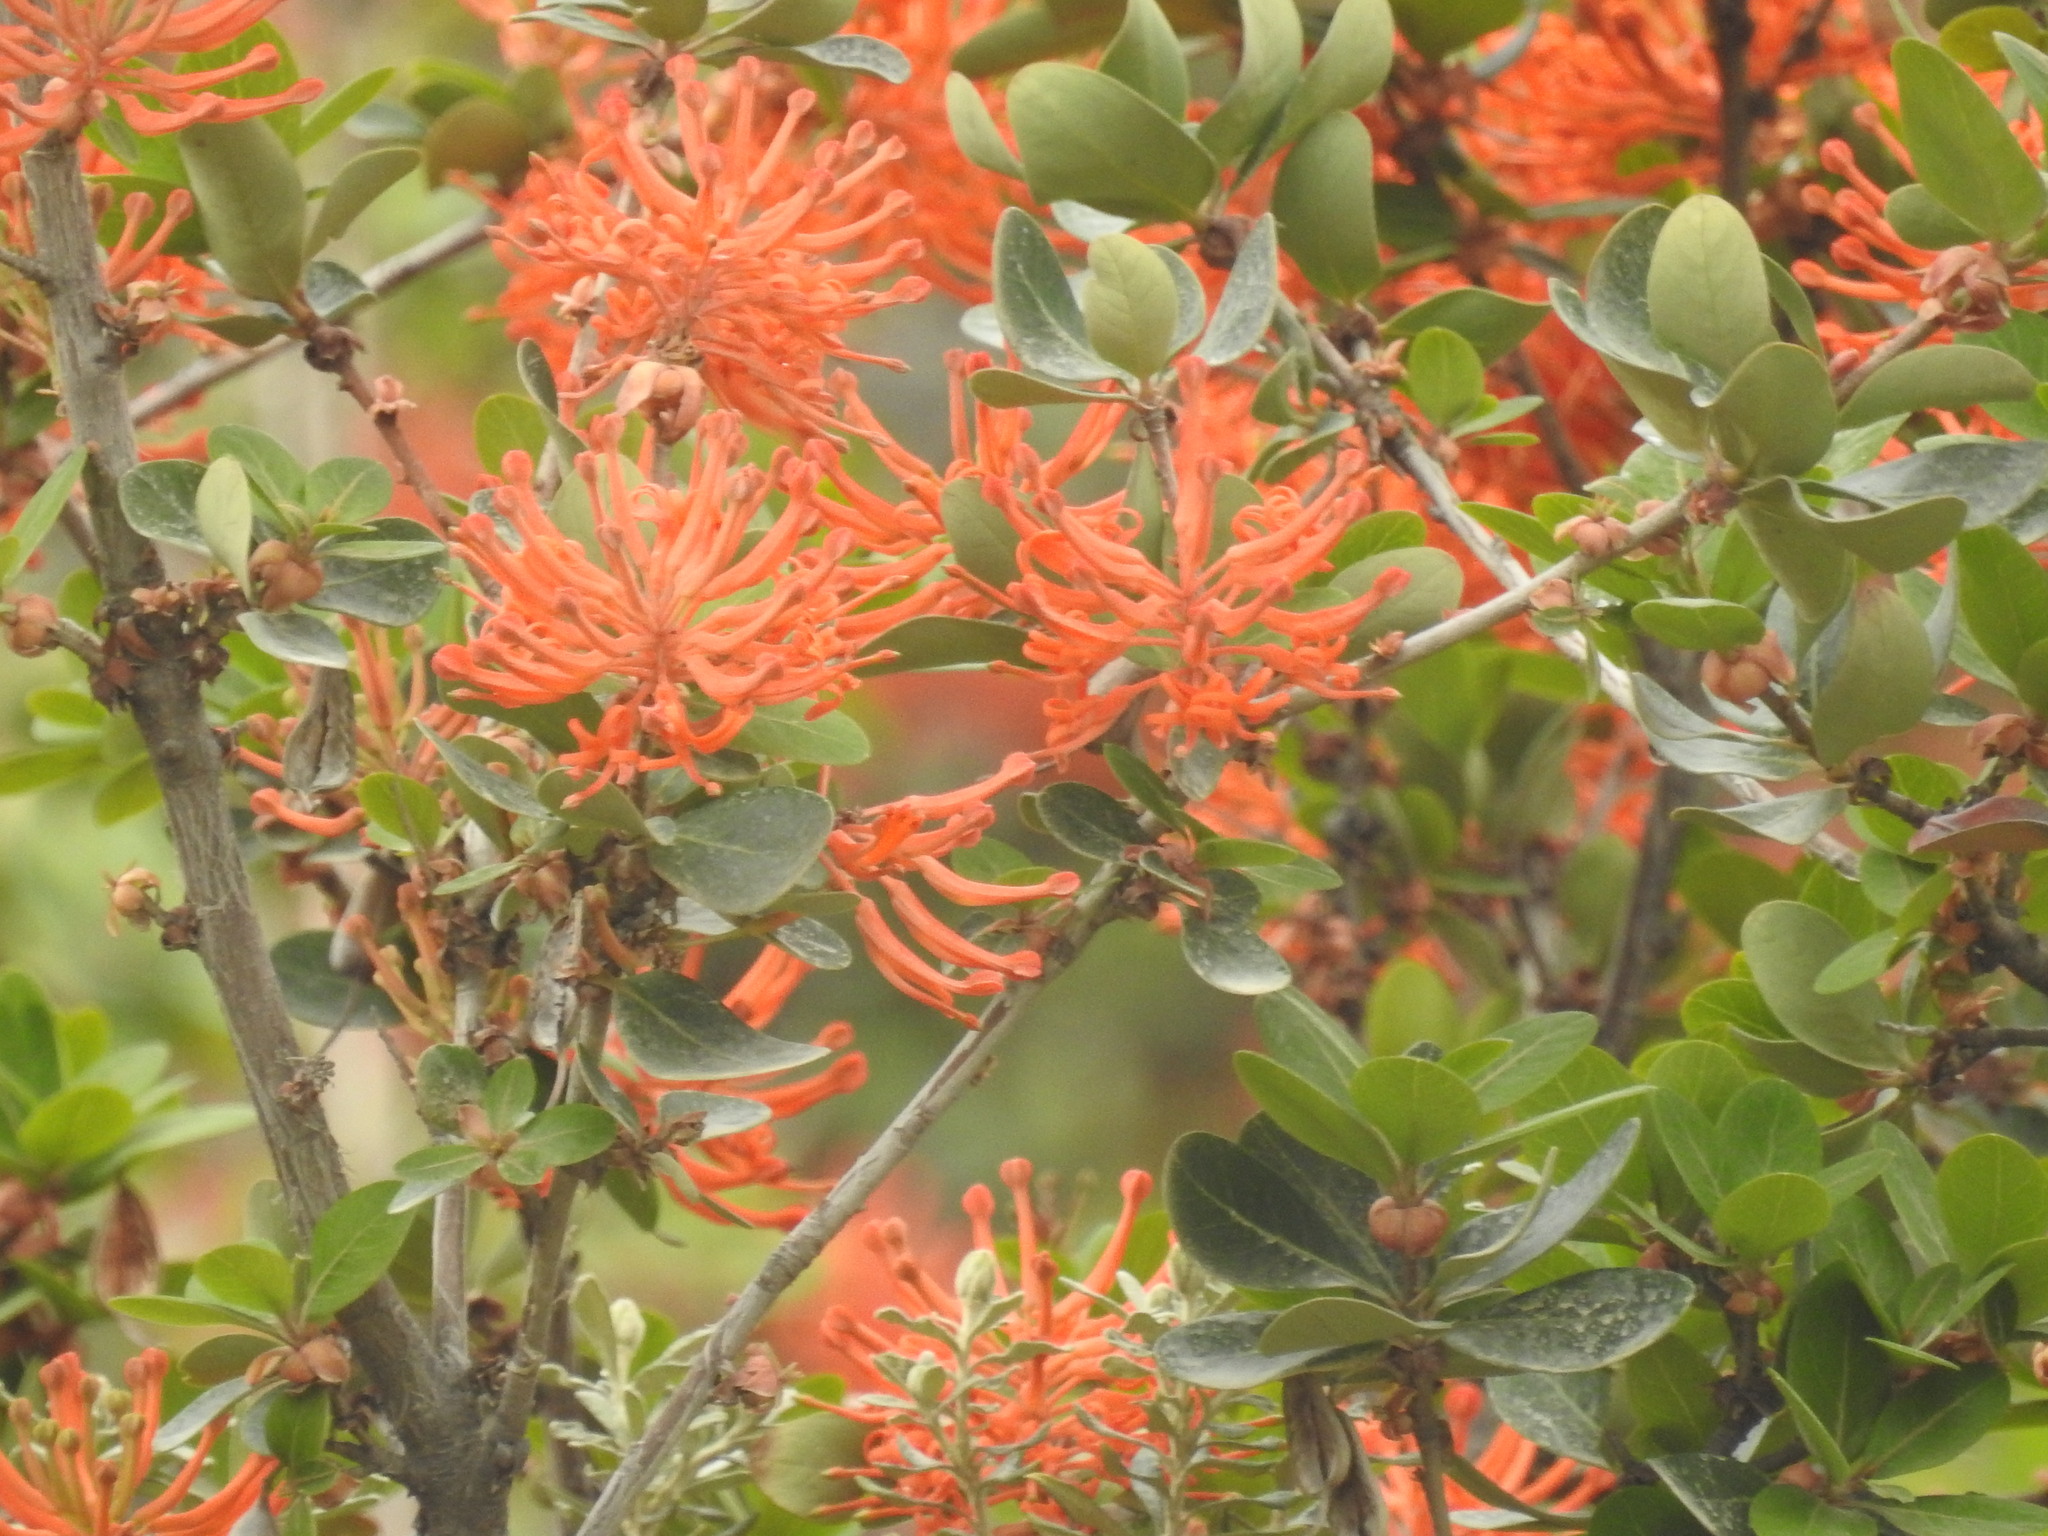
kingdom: Plantae
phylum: Tracheophyta
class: Magnoliopsida
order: Proteales
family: Proteaceae
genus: Embothrium
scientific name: Embothrium coccineum
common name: Chilean firebush
